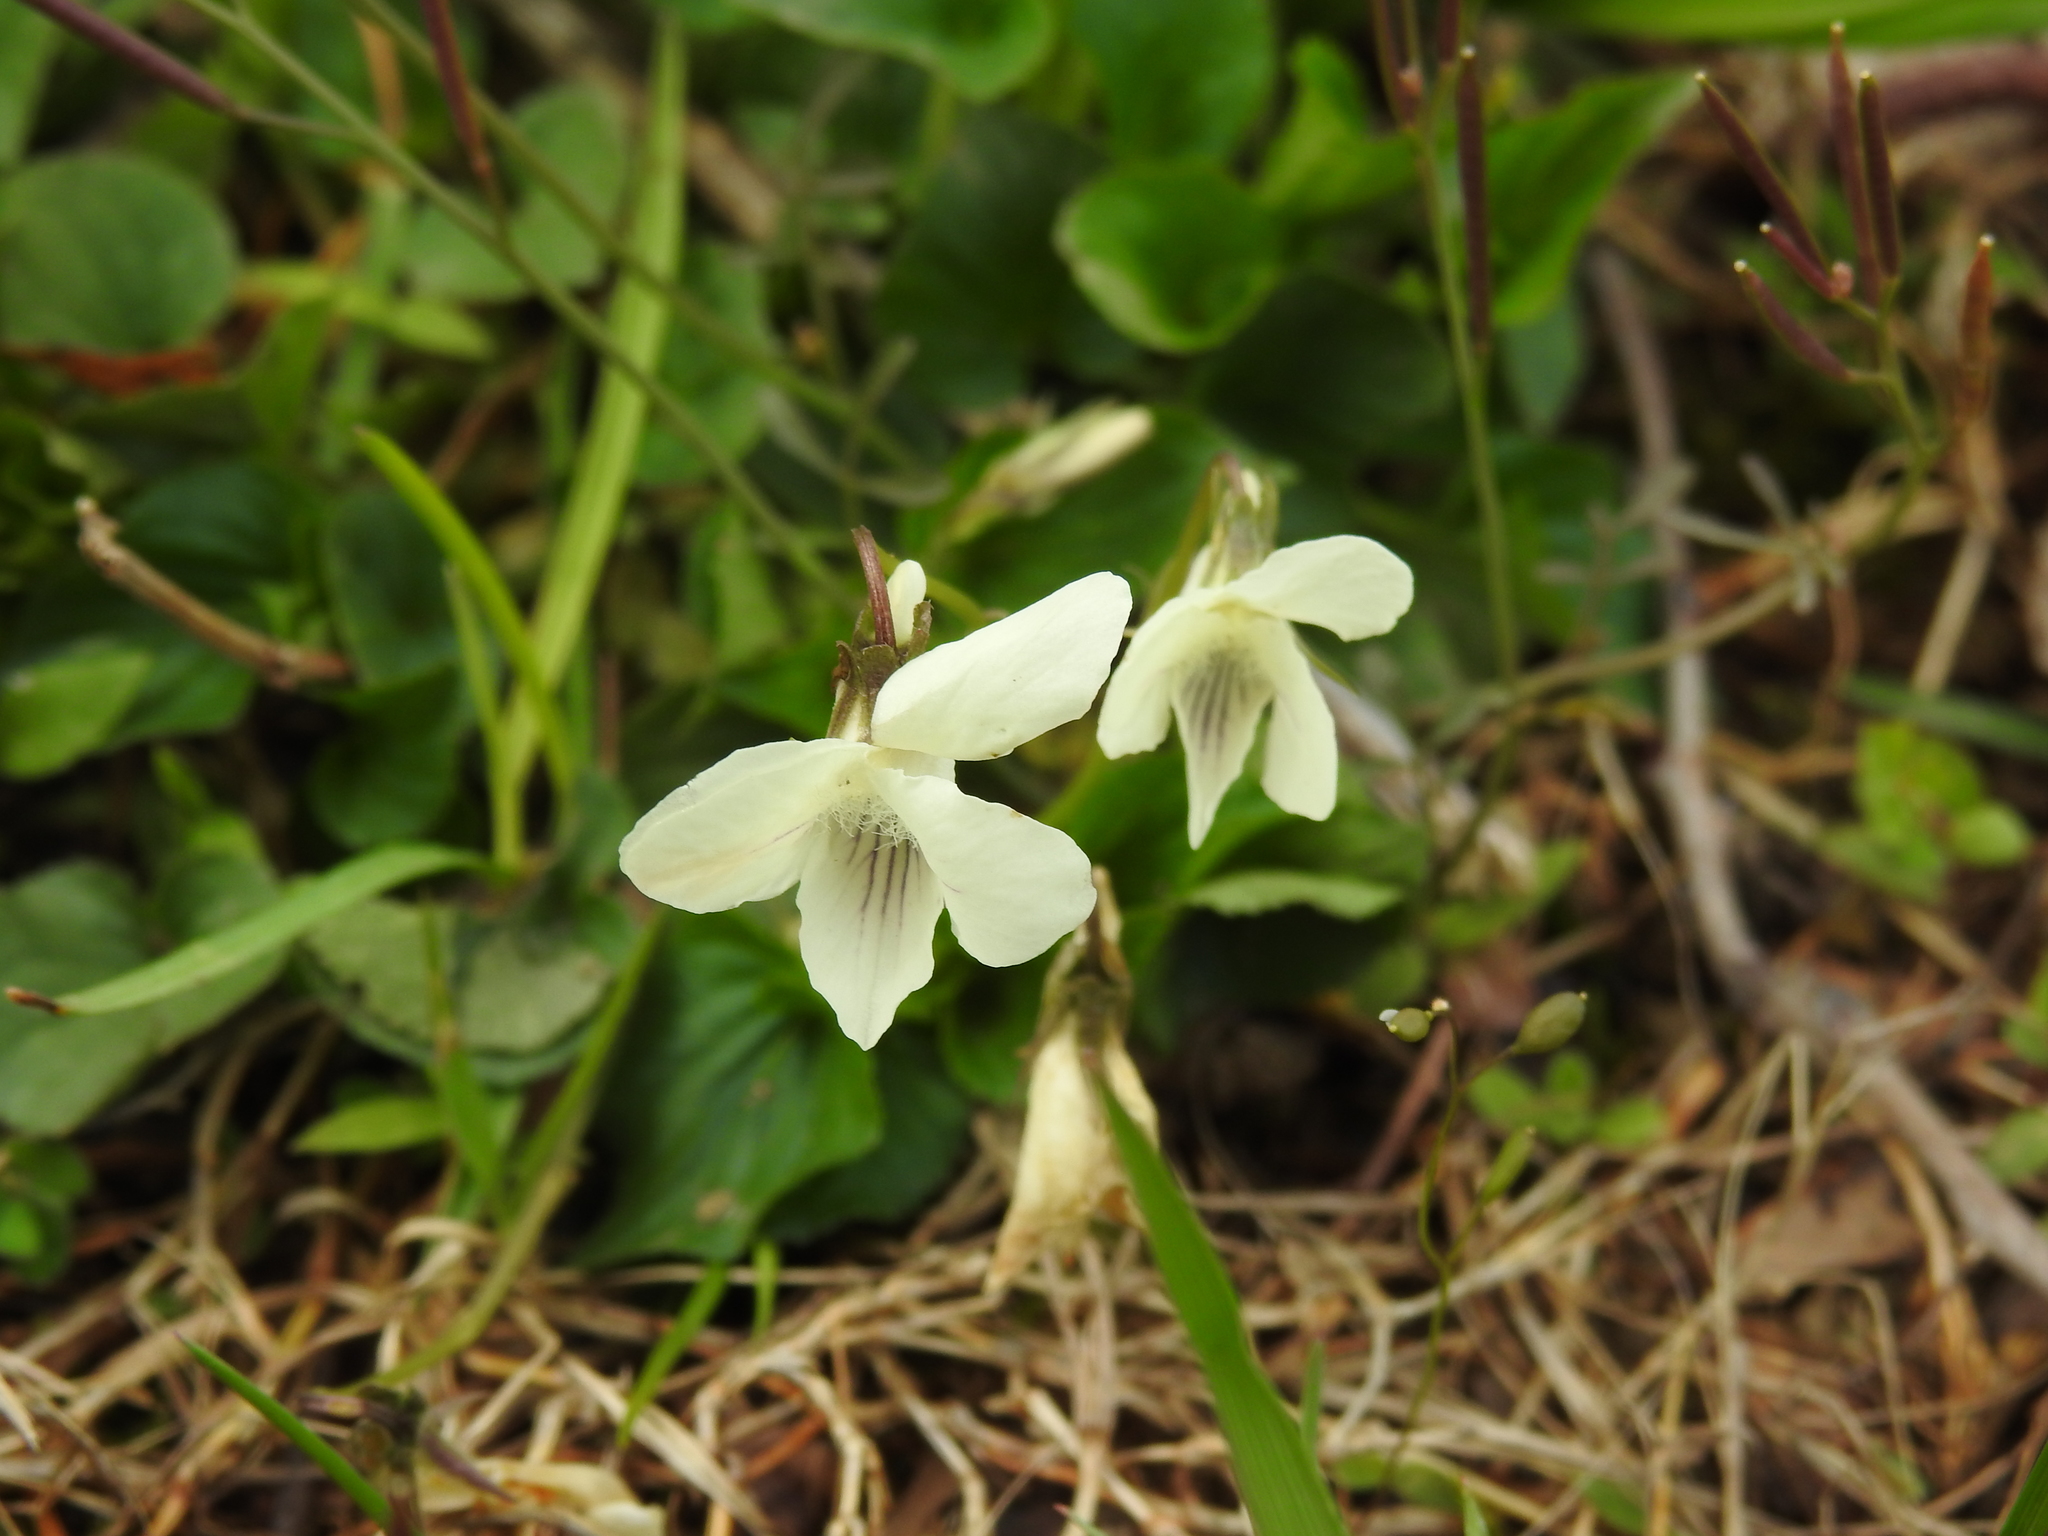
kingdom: Plantae
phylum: Tracheophyta
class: Magnoliopsida
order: Malpighiales
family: Violaceae
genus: Viola
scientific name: Viola striata
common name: Cream violet
